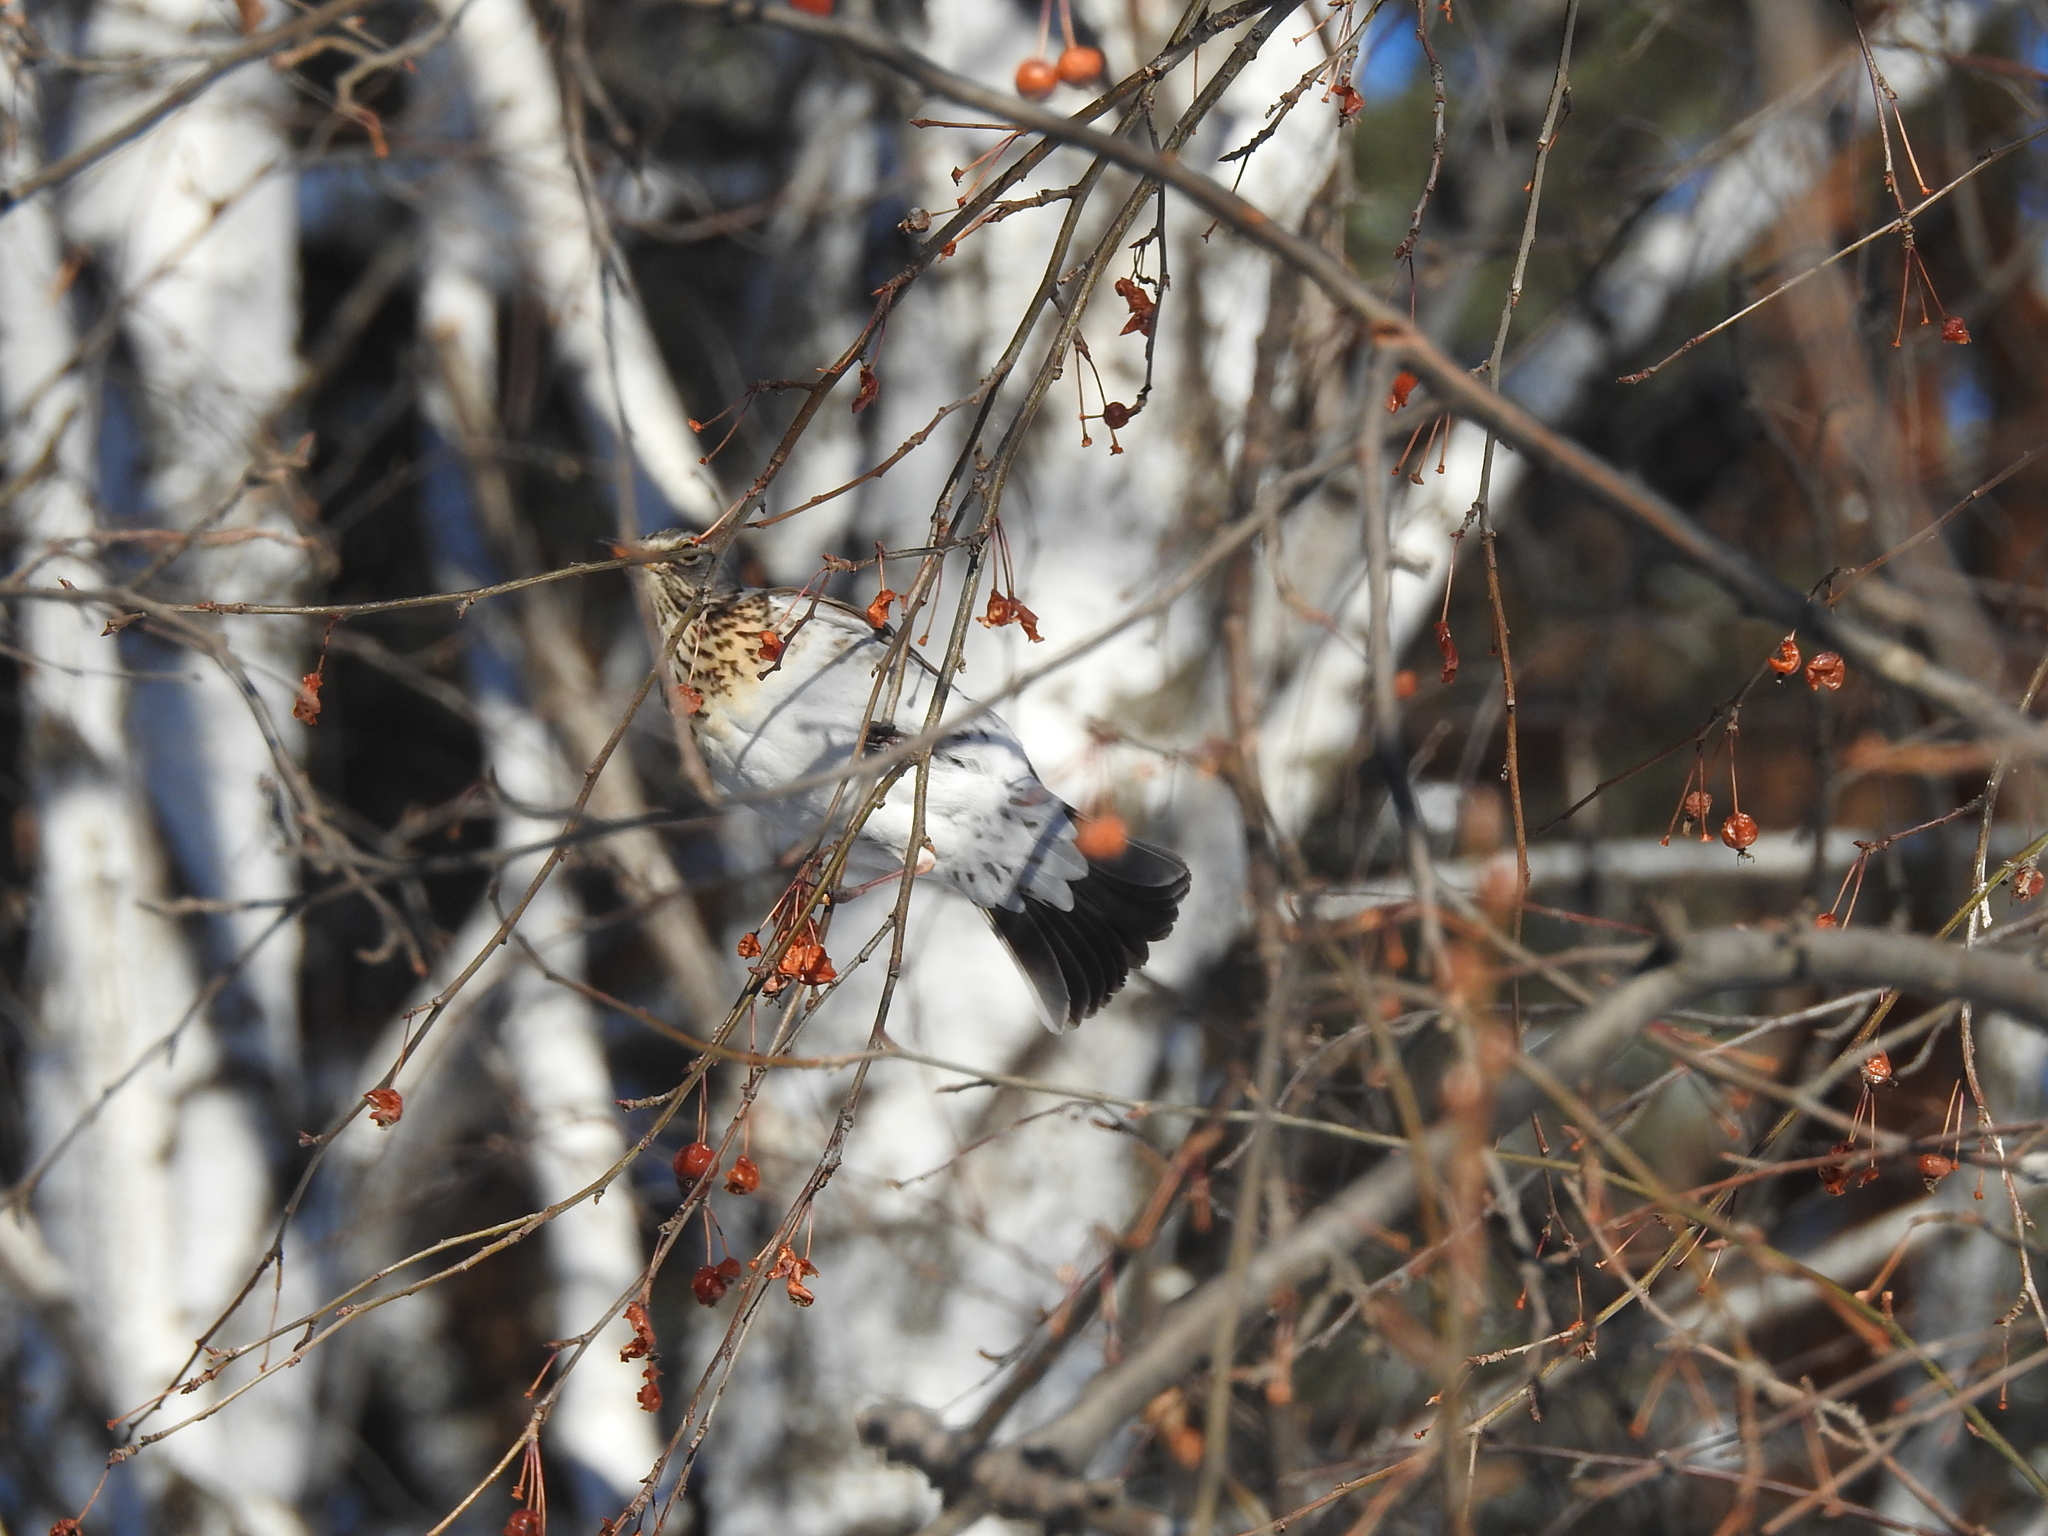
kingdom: Animalia
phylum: Chordata
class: Aves
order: Passeriformes
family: Turdidae
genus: Turdus
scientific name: Turdus pilaris
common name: Fieldfare
